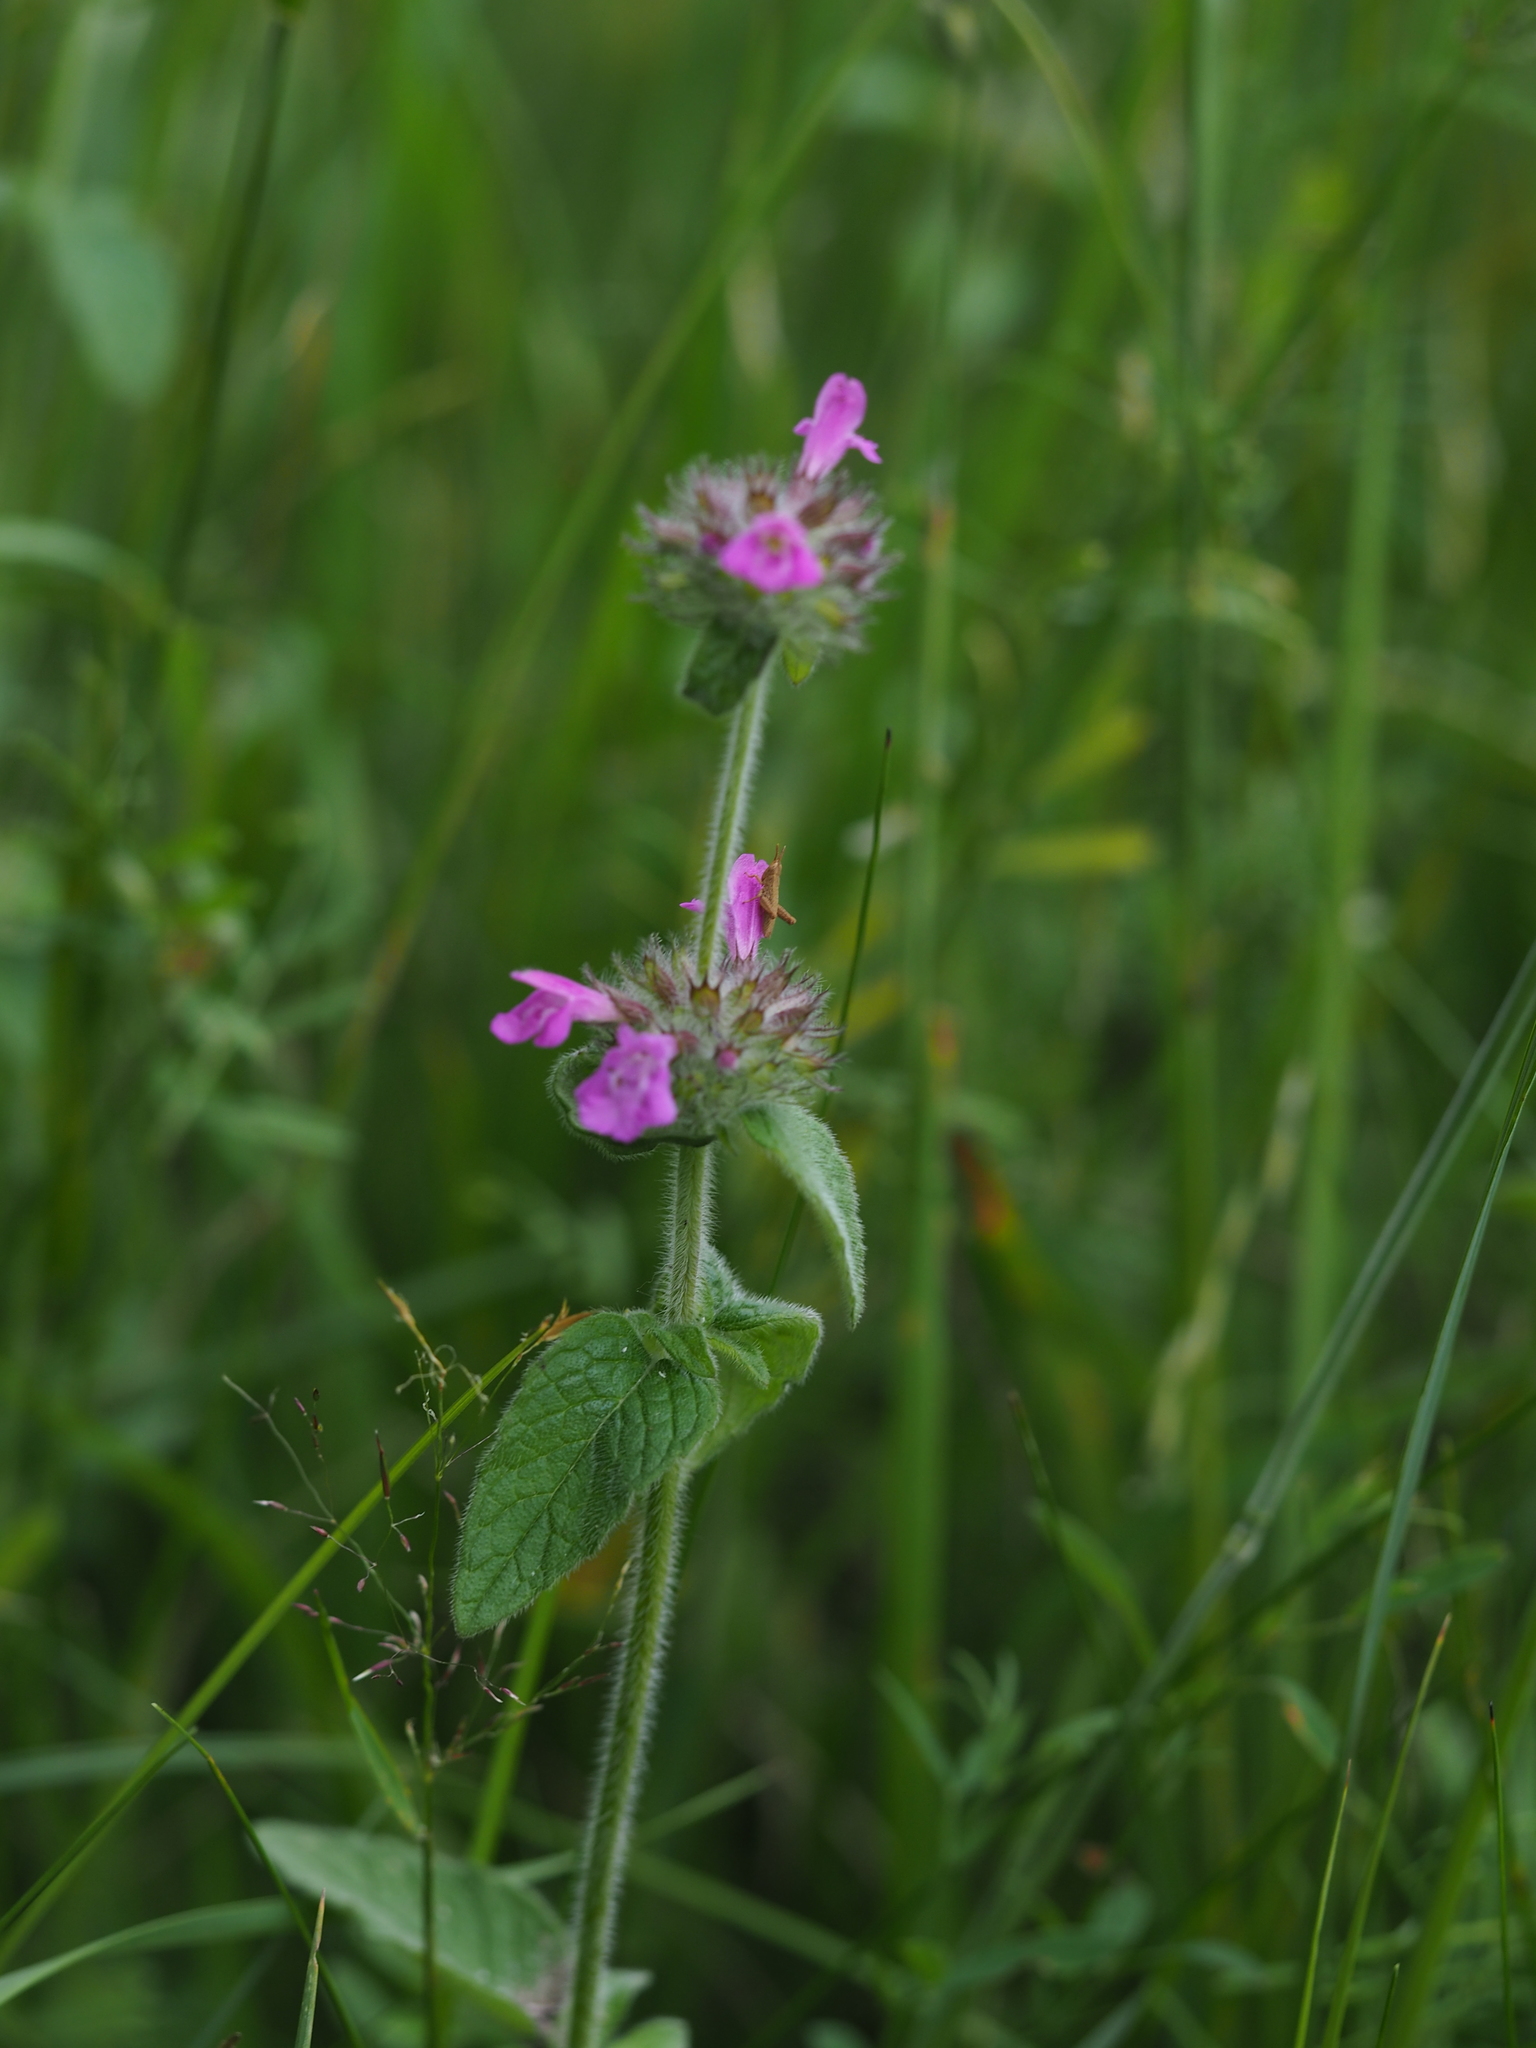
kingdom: Plantae
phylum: Tracheophyta
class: Magnoliopsida
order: Lamiales
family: Lamiaceae
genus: Clinopodium
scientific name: Clinopodium vulgare
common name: Wild basil
